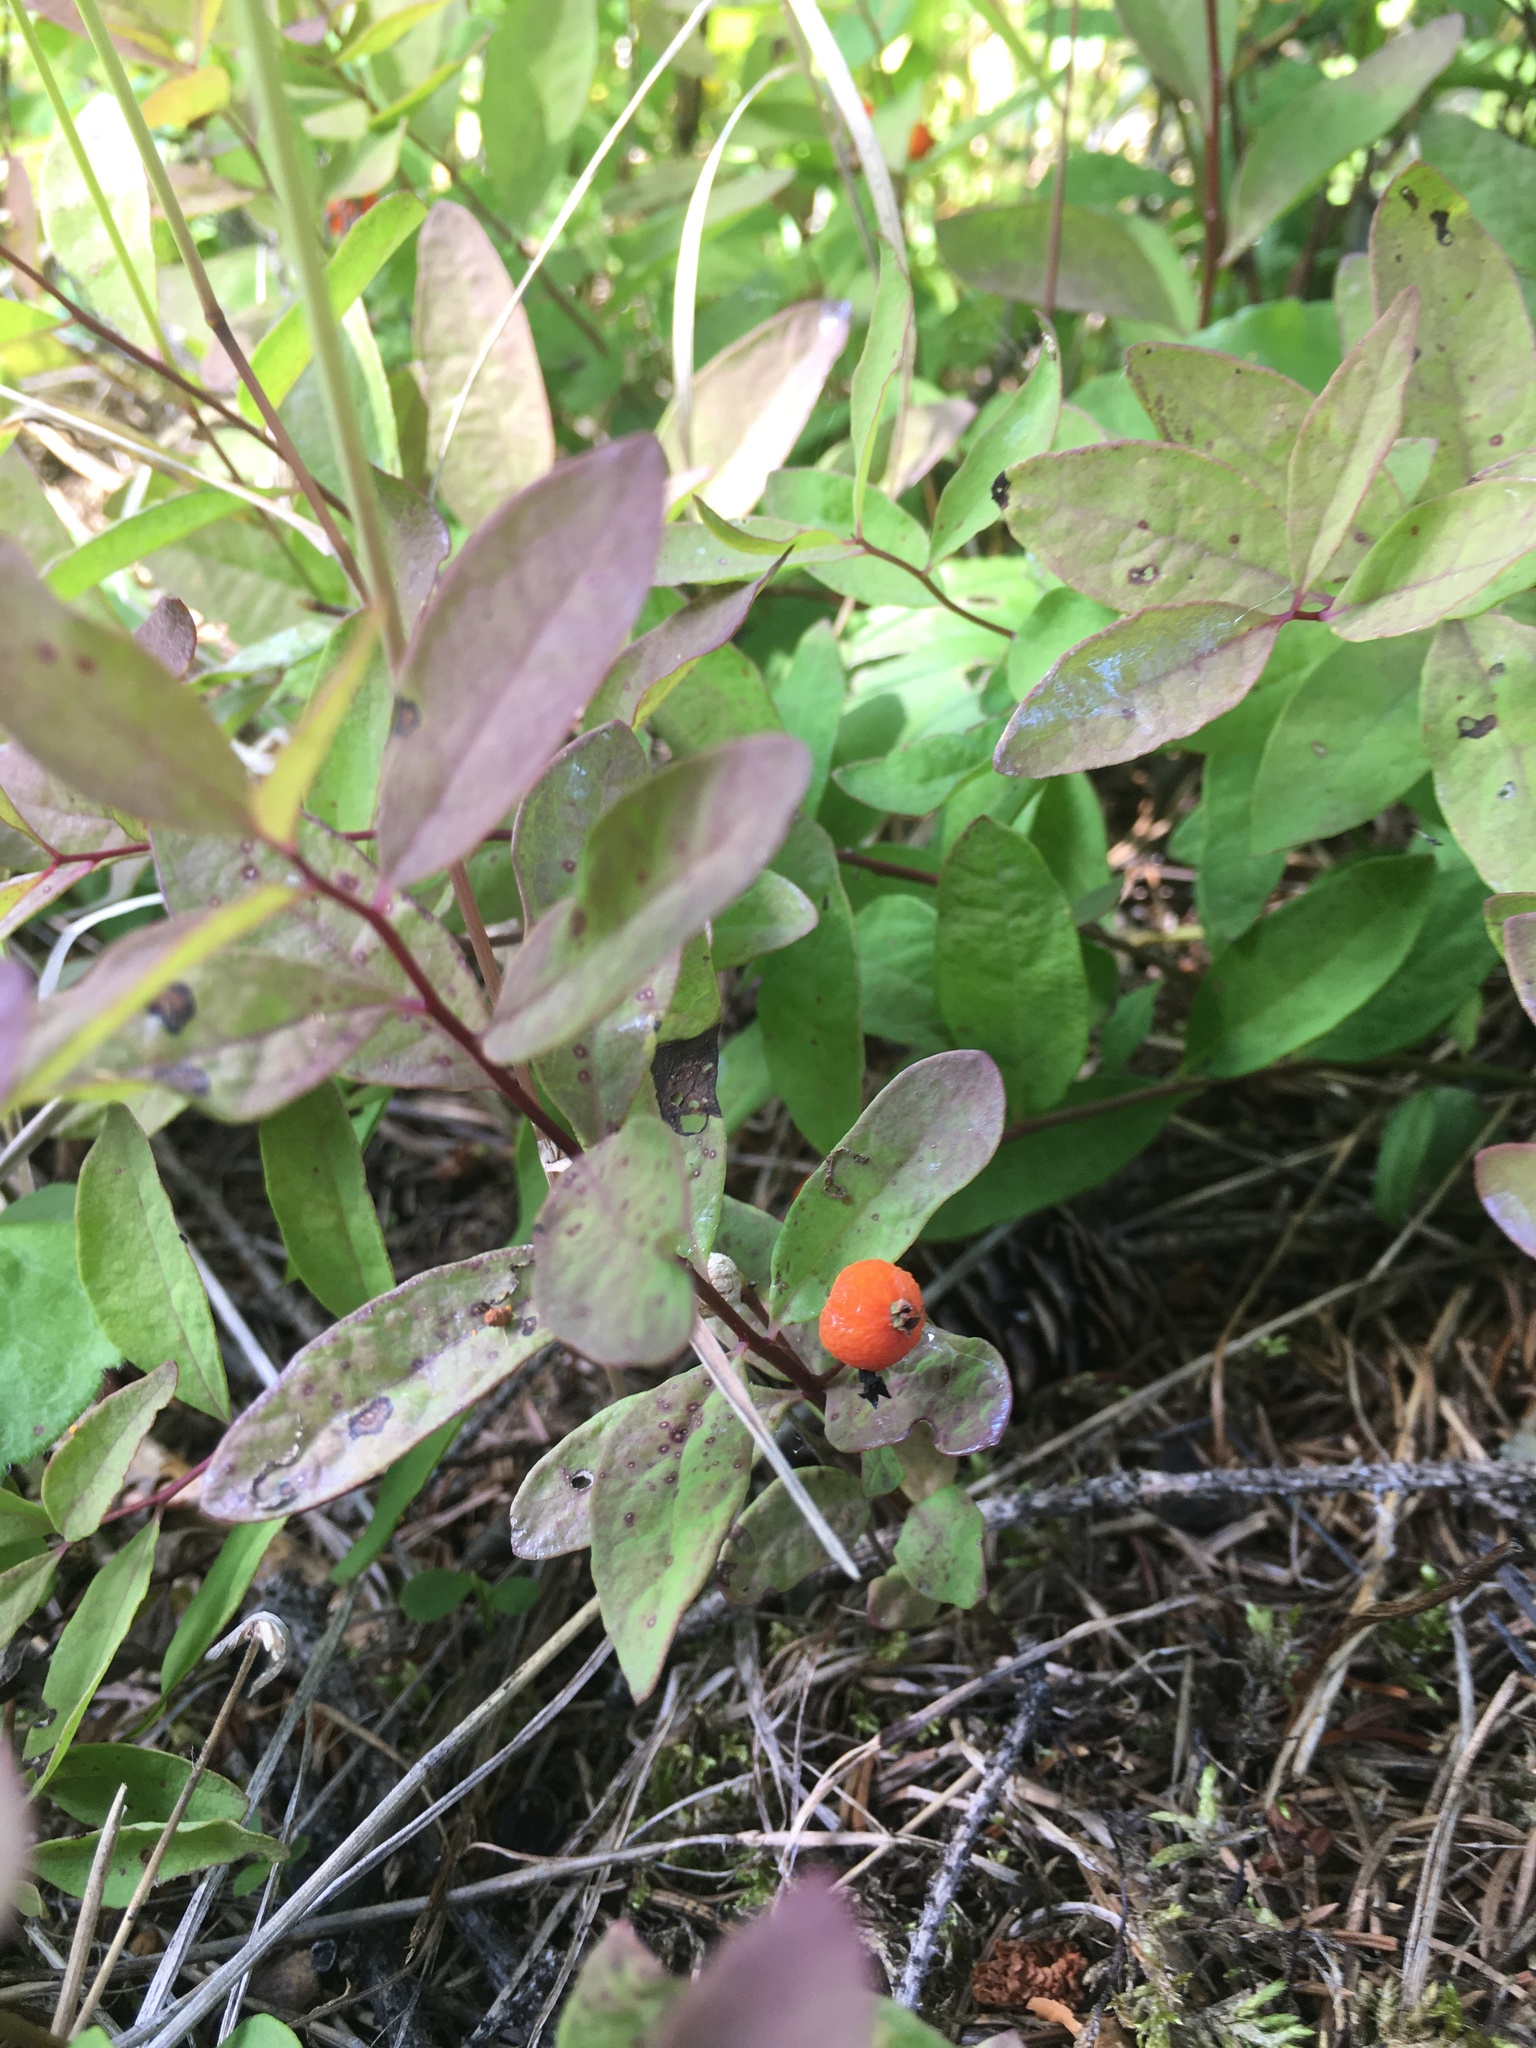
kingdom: Plantae
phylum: Tracheophyta
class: Magnoliopsida
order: Santalales
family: Comandraceae
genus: Geocaulon
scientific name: Geocaulon lividum
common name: Earthberry
